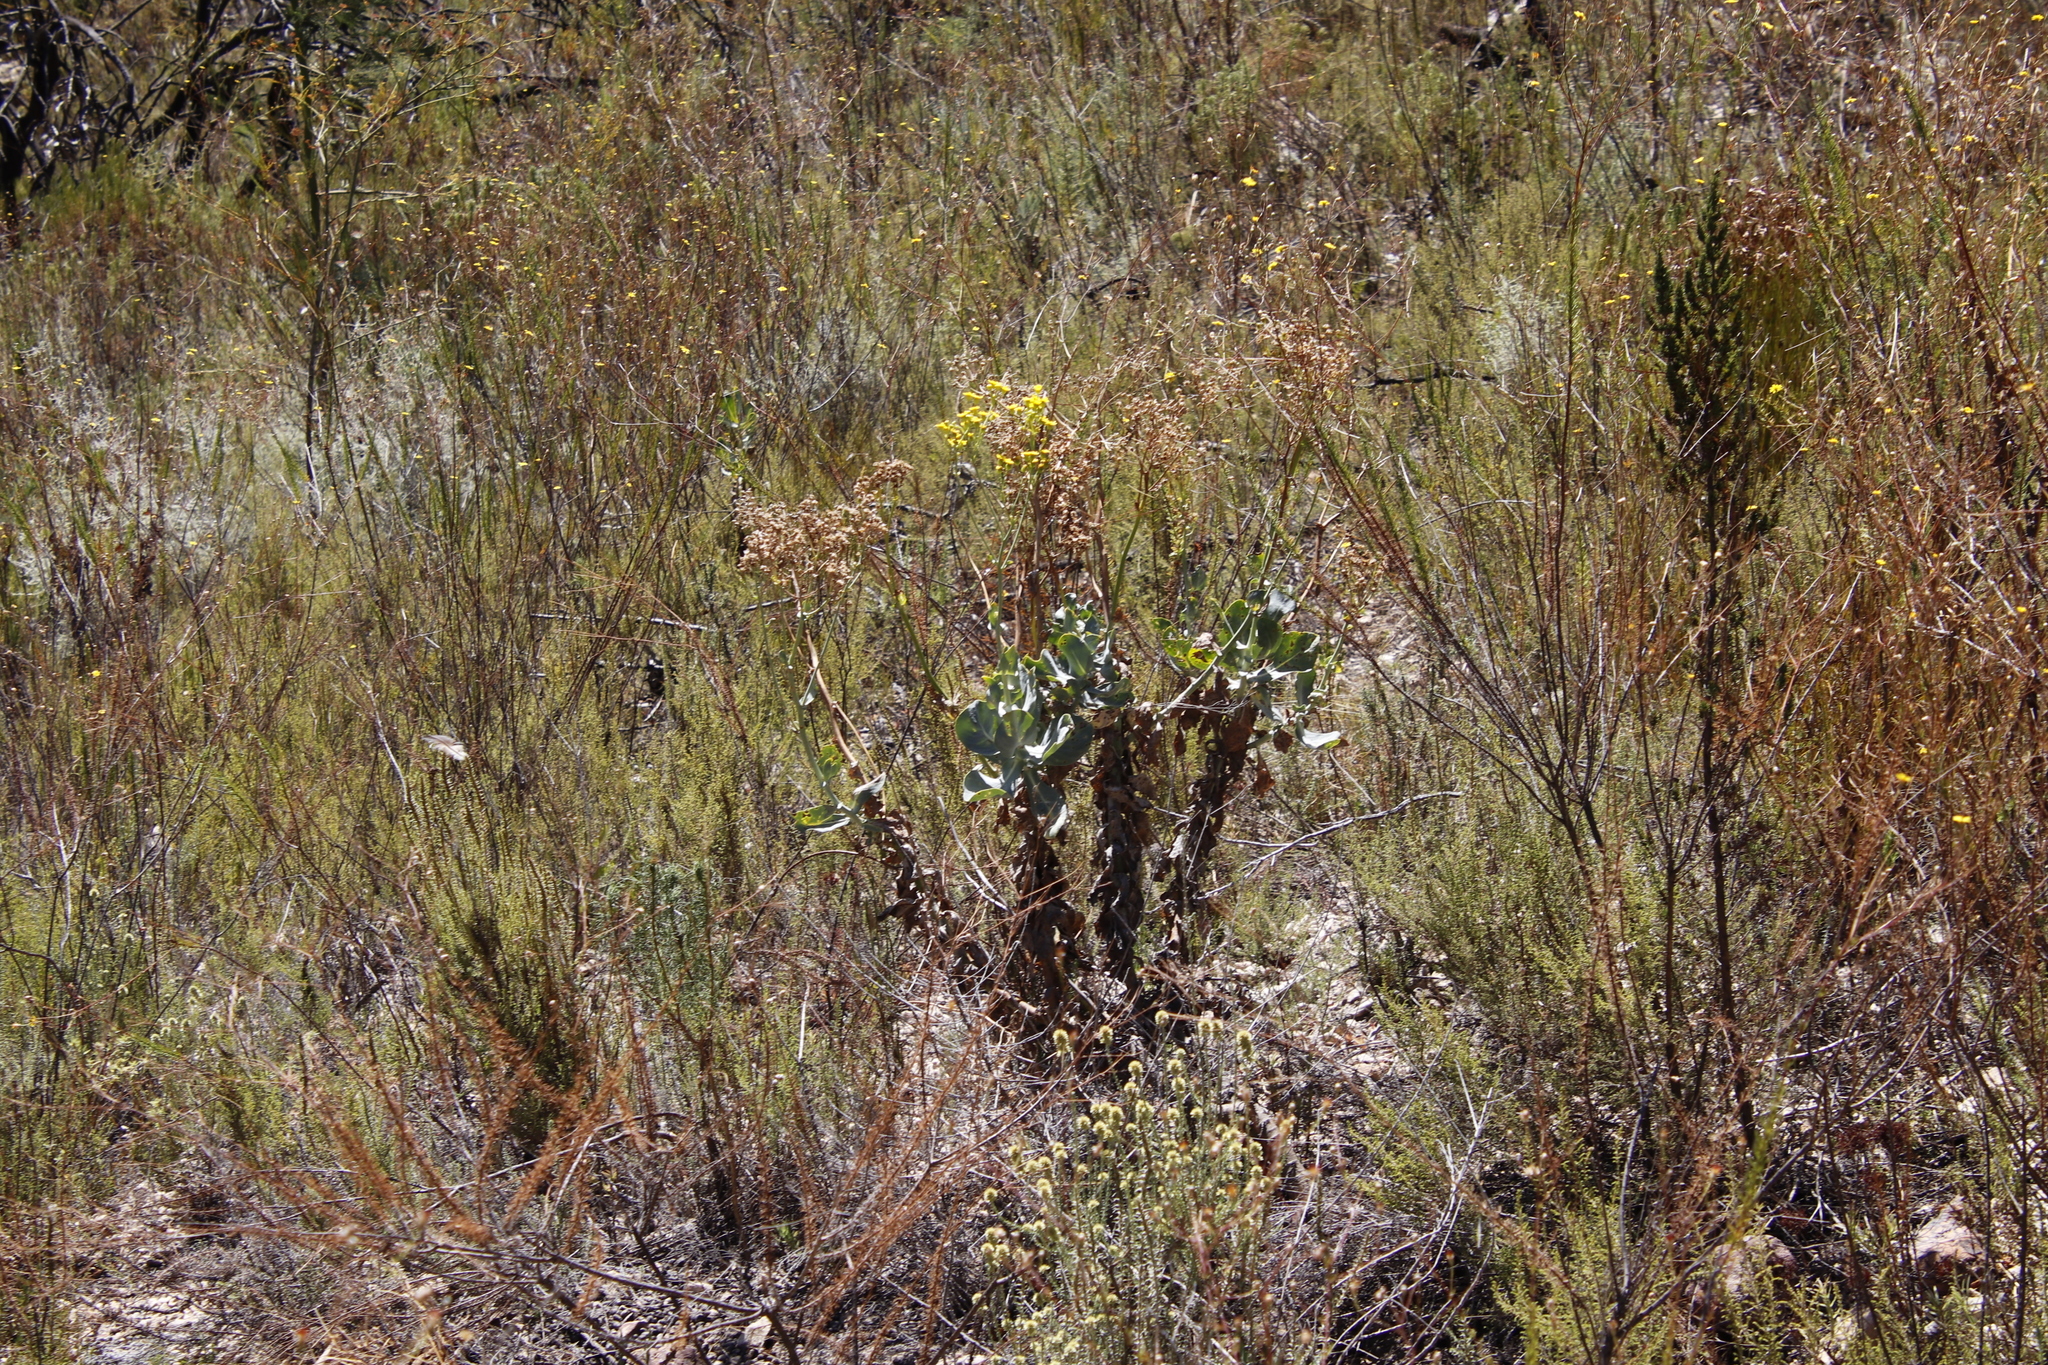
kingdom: Plantae
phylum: Tracheophyta
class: Magnoliopsida
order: Asterales
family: Asteraceae
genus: Othonna
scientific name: Othonna parviflora
